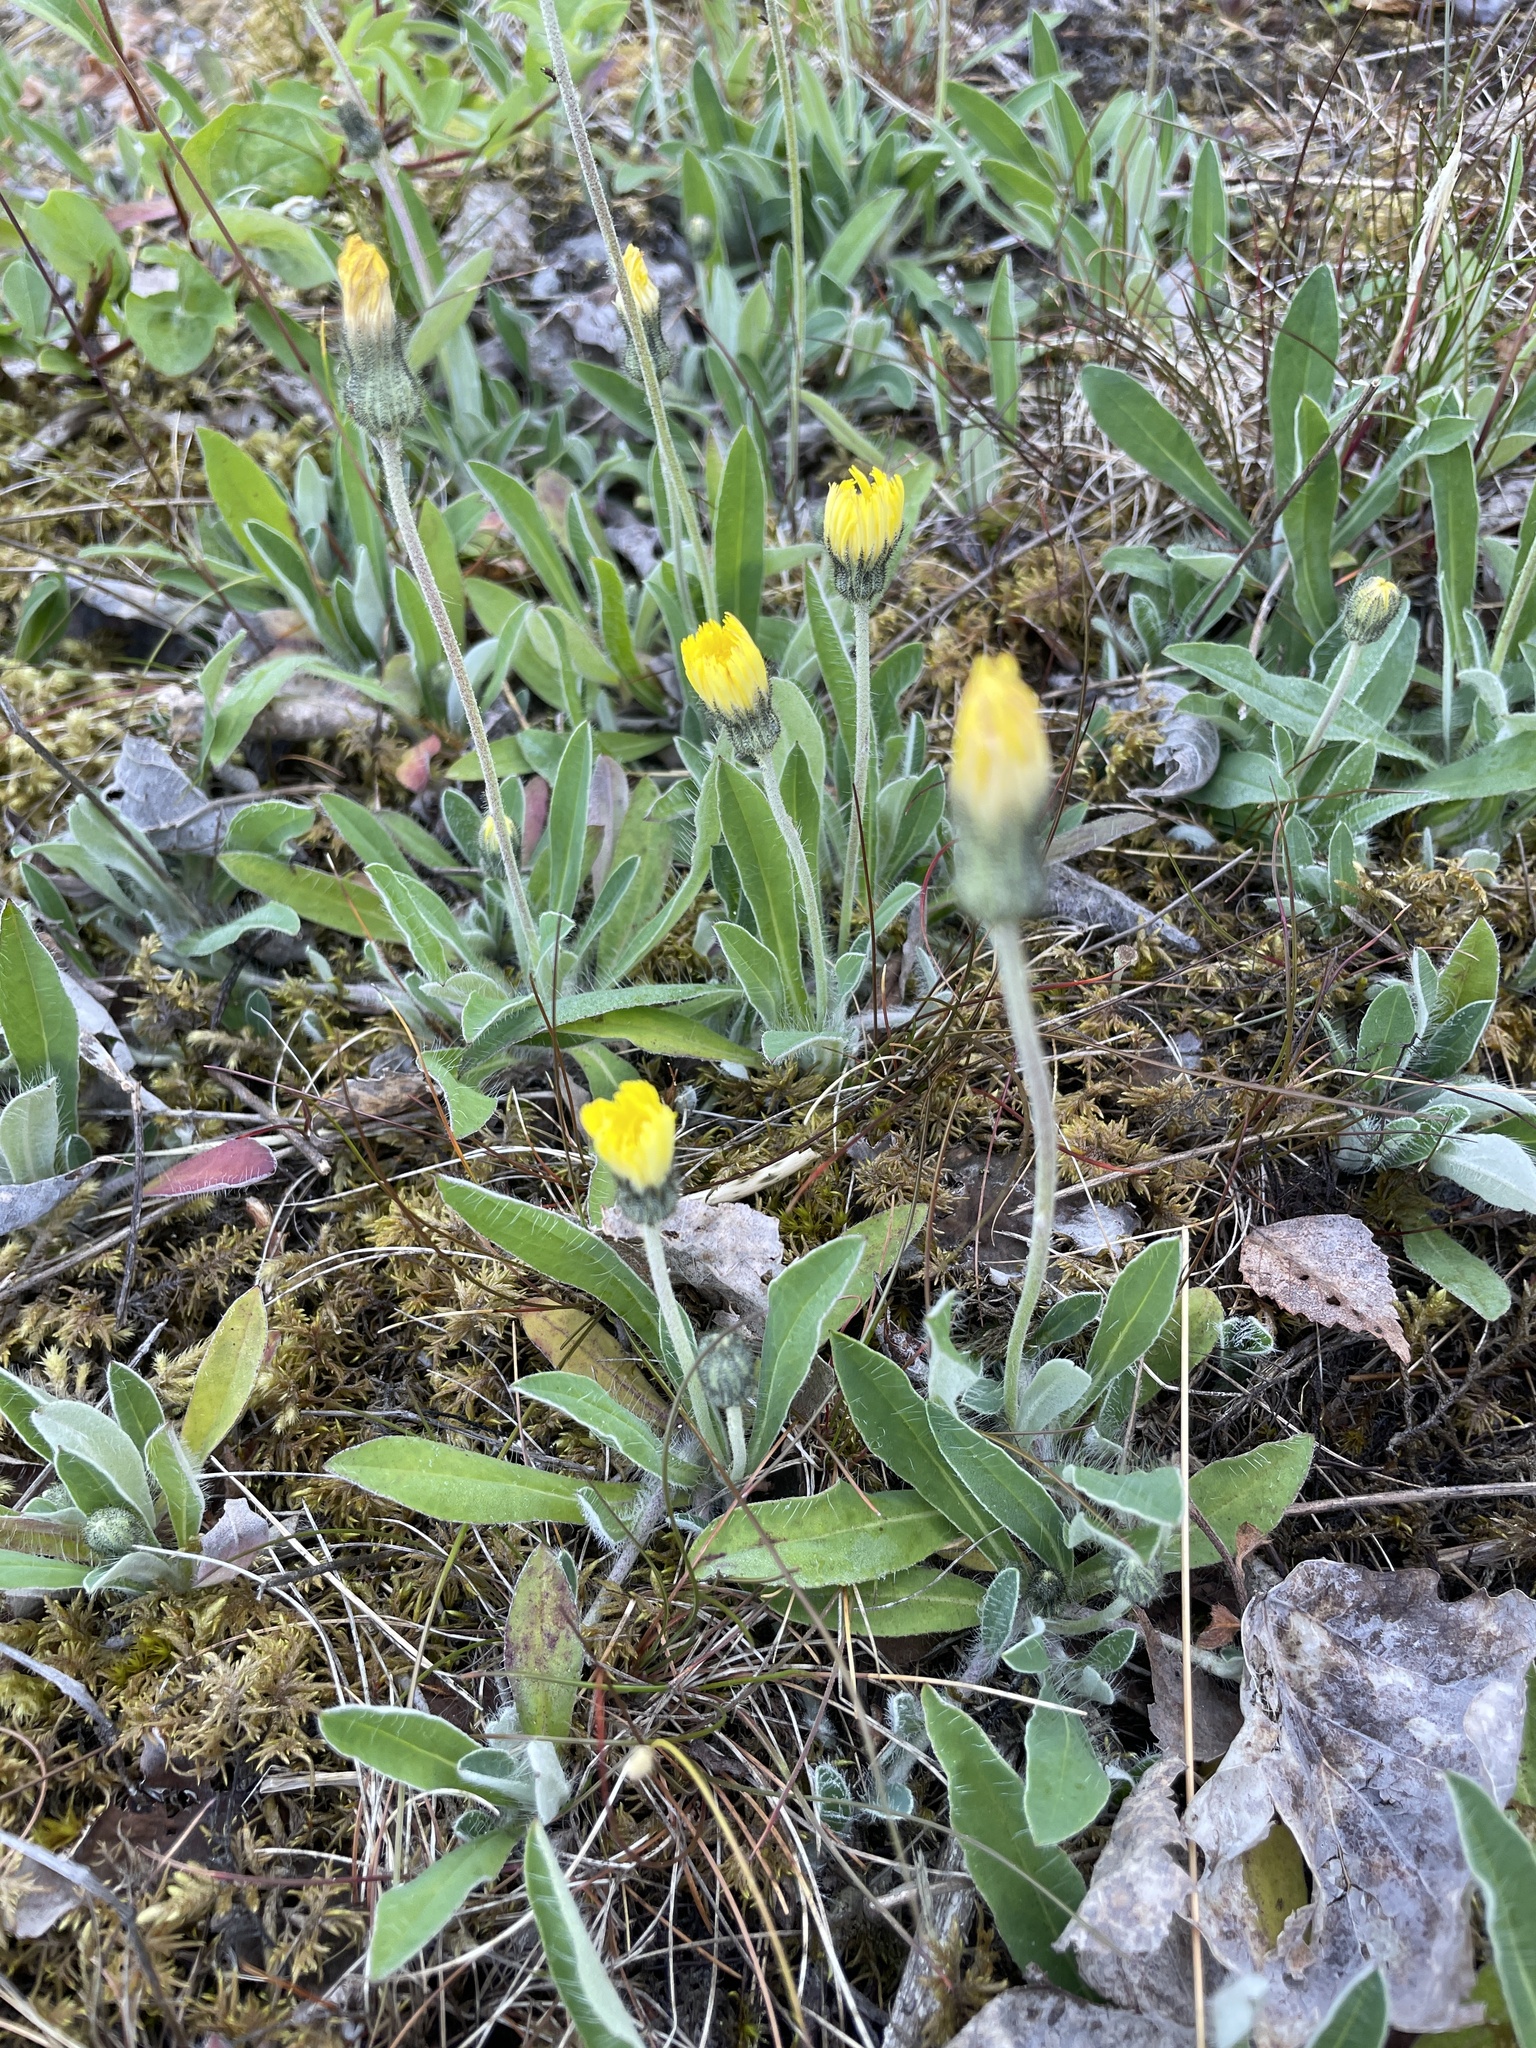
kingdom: Plantae
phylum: Tracheophyta
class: Magnoliopsida
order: Asterales
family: Asteraceae
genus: Pilosella
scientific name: Pilosella officinarum
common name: Mouse-ear hawkweed
